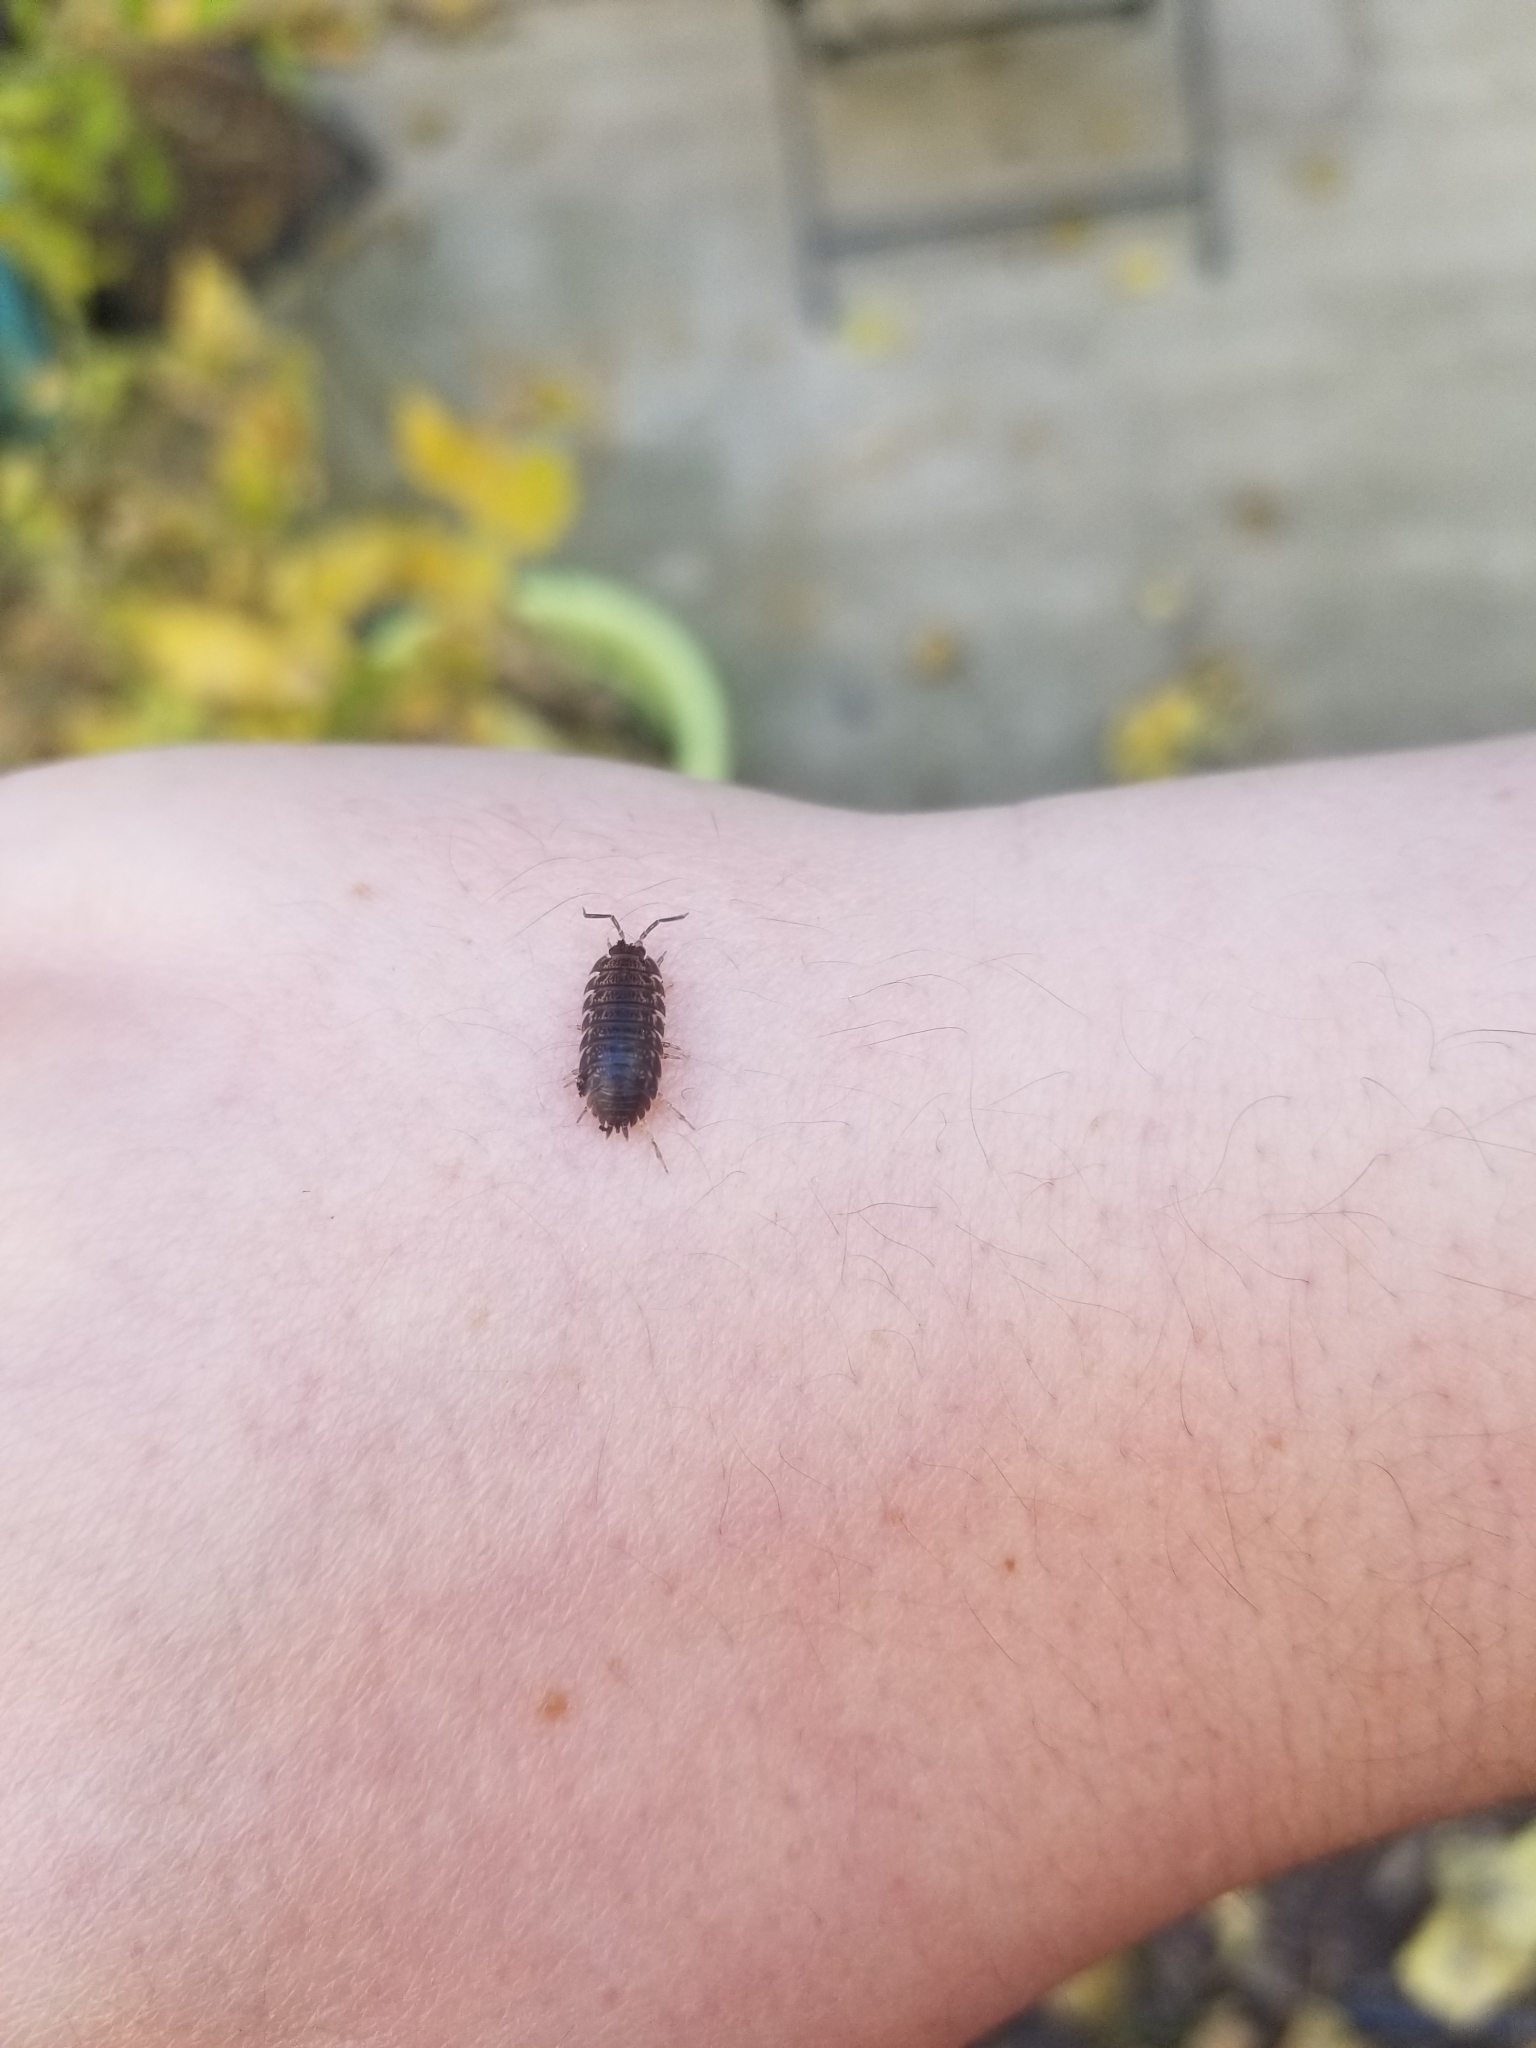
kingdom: Animalia
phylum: Arthropoda
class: Malacostraca
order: Isopoda
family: Trachelipodidae
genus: Trachelipus
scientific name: Trachelipus rathkii
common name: Isopod
